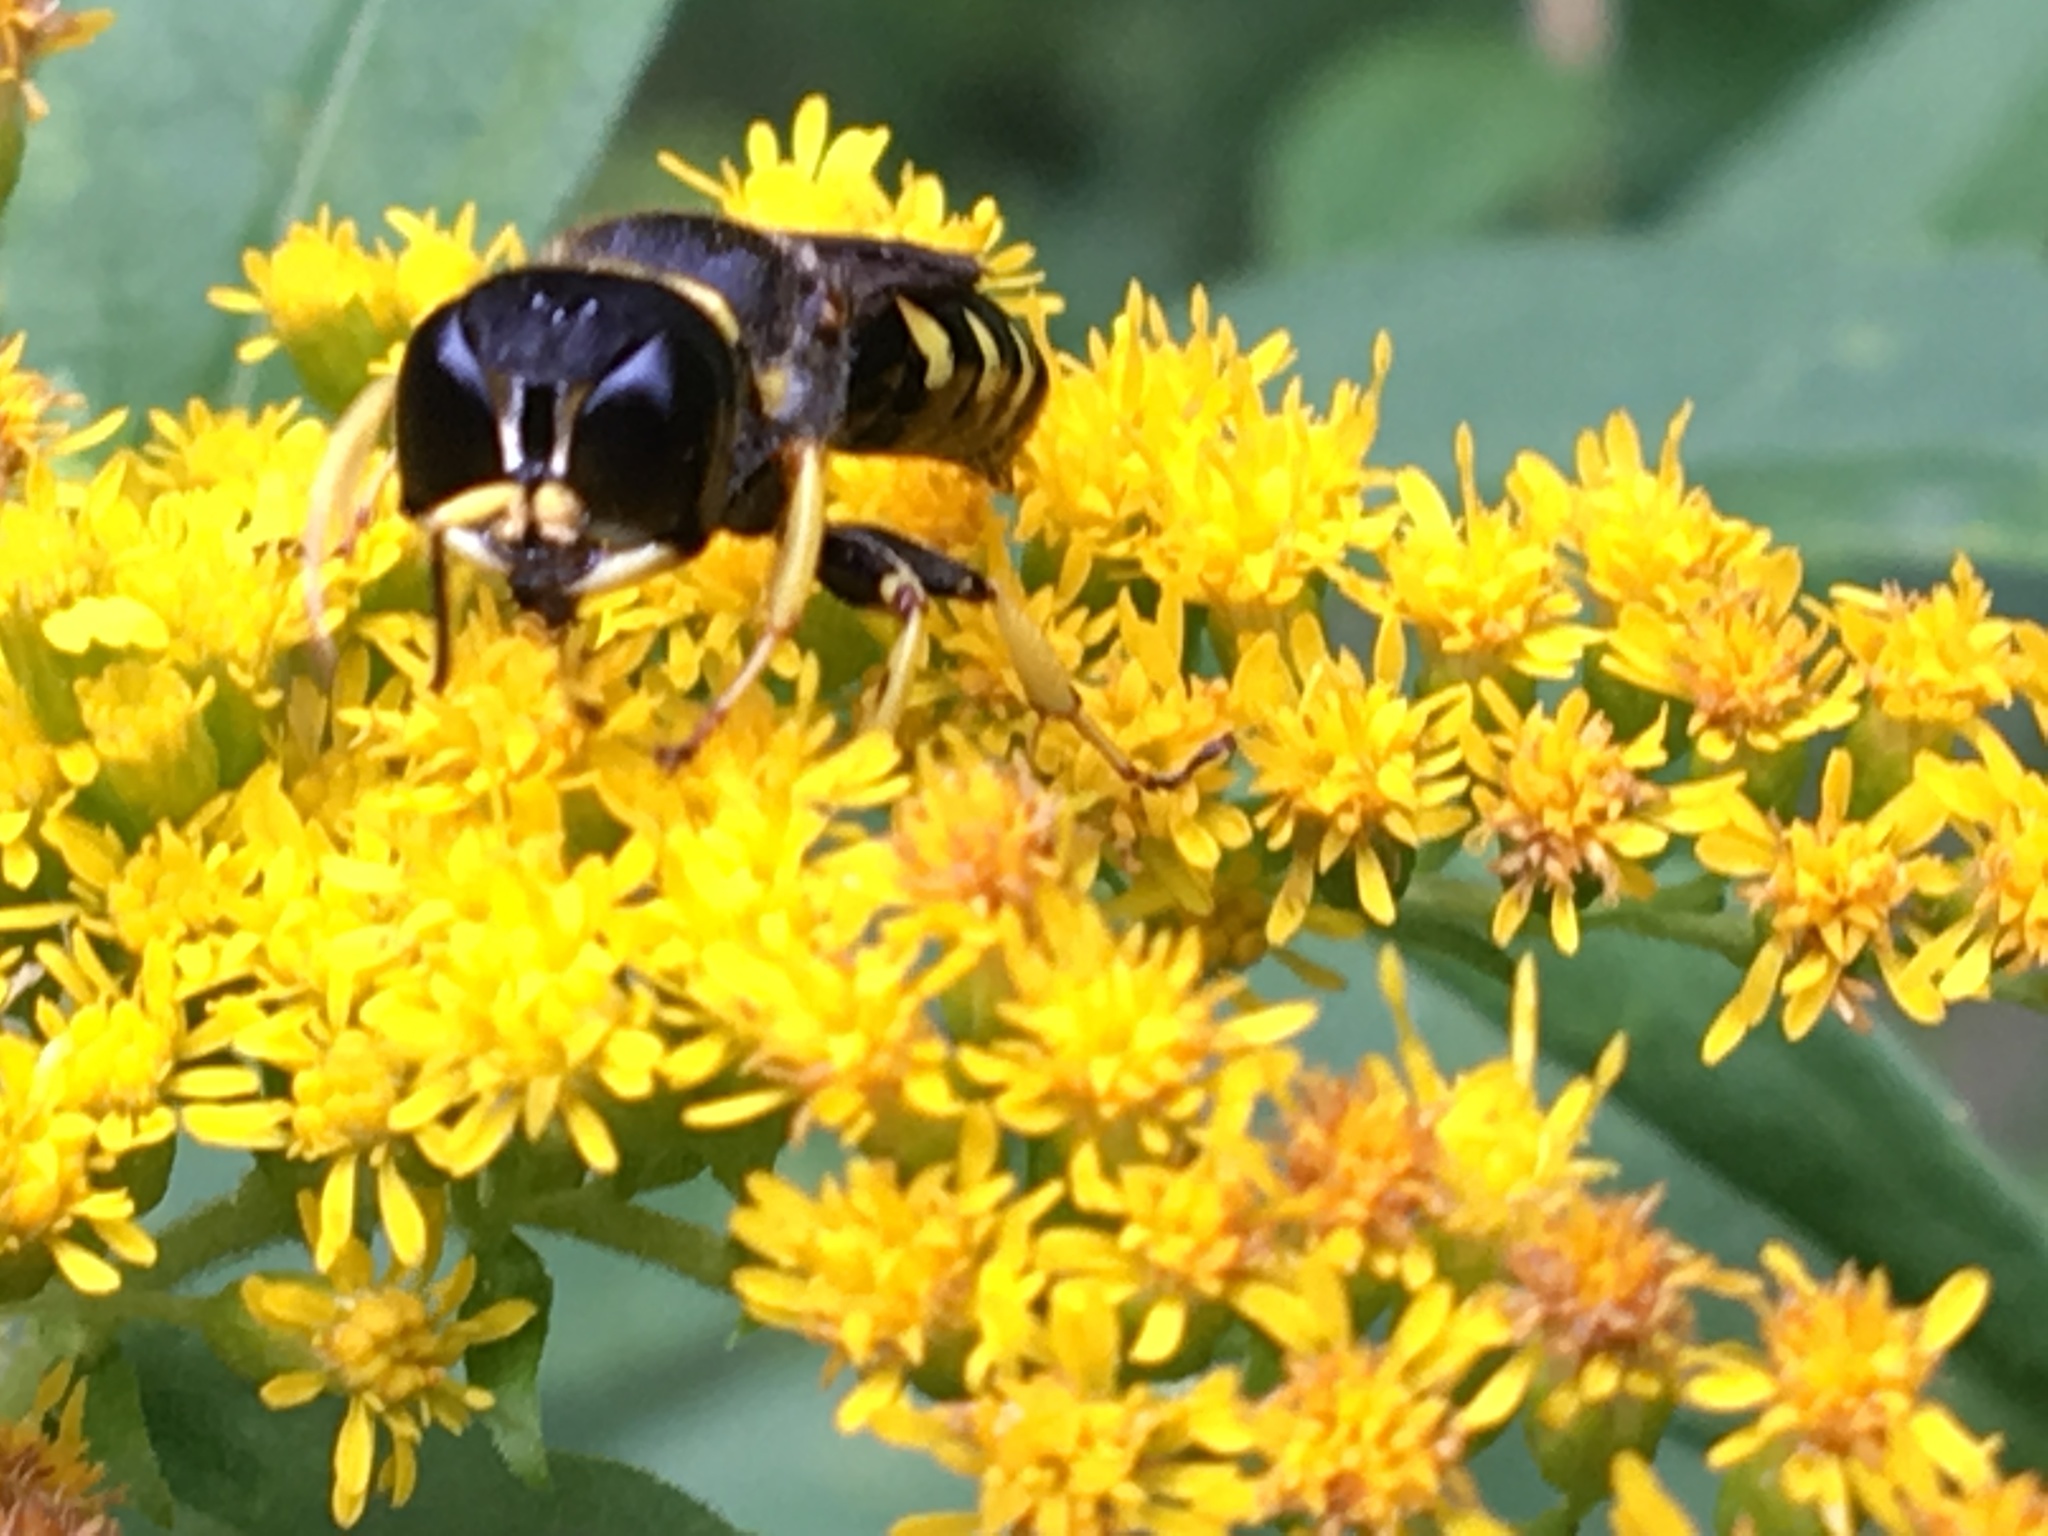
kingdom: Animalia
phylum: Arthropoda
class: Insecta
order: Hymenoptera
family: Crabronidae
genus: Ectemnius
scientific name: Ectemnius maculosus
